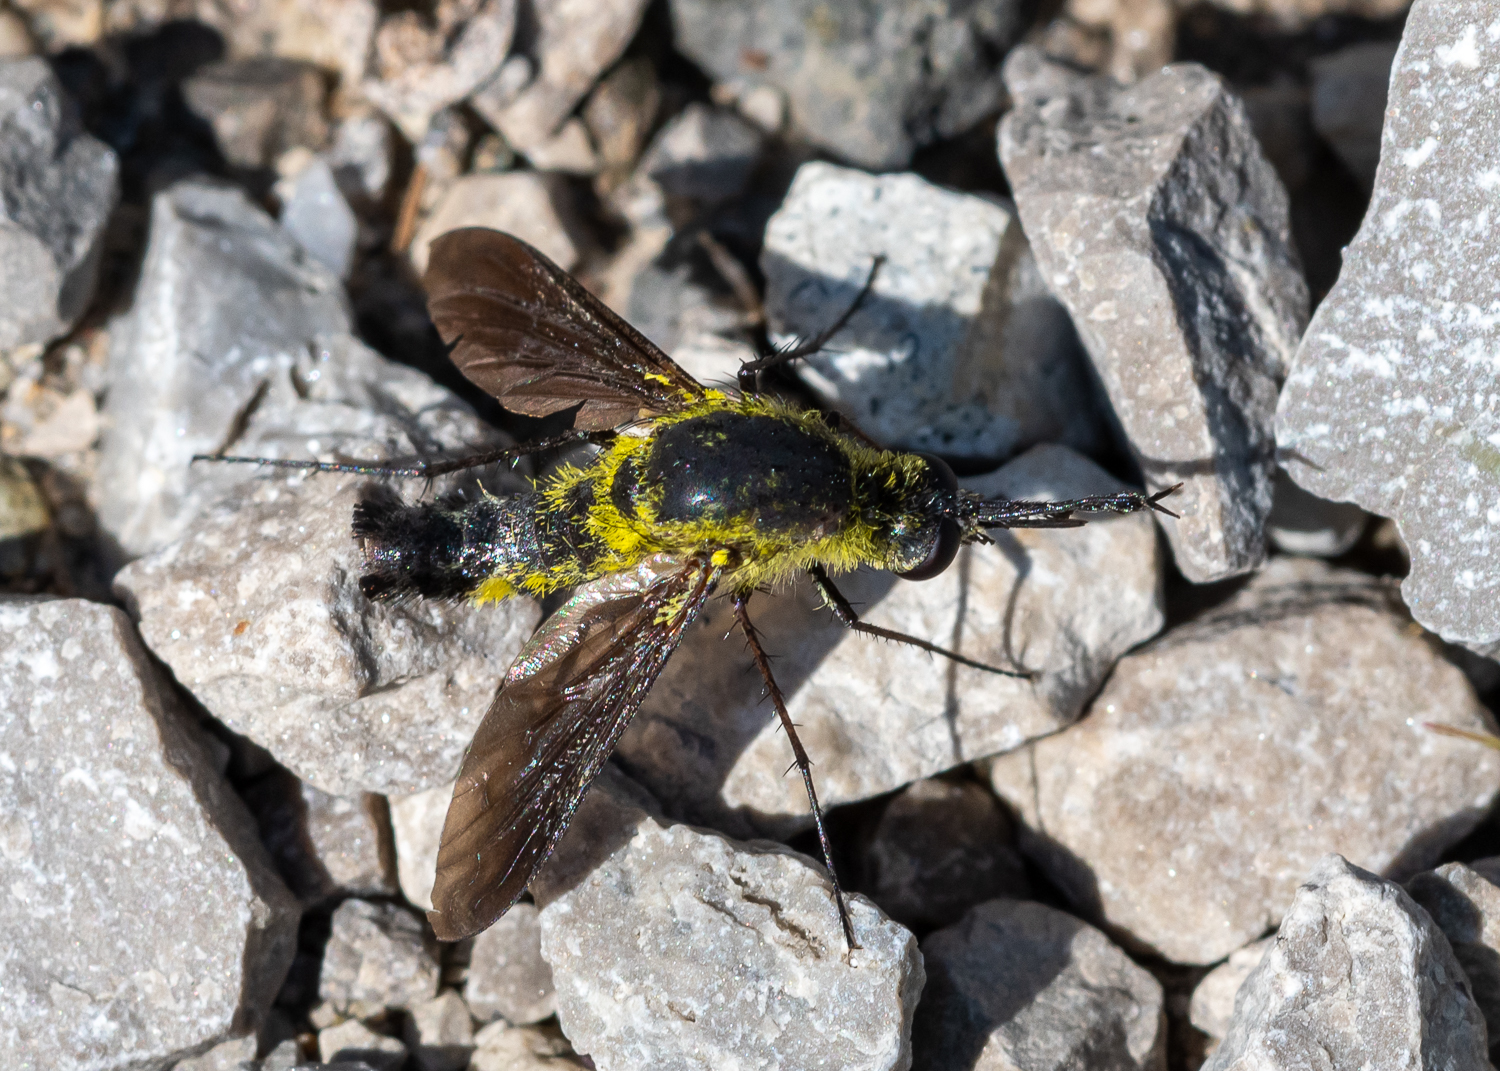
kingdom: Animalia
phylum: Arthropoda
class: Insecta
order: Diptera
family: Bombyliidae
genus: Lepidophora
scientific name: Lepidophora lutea
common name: Hunchback bee fly
